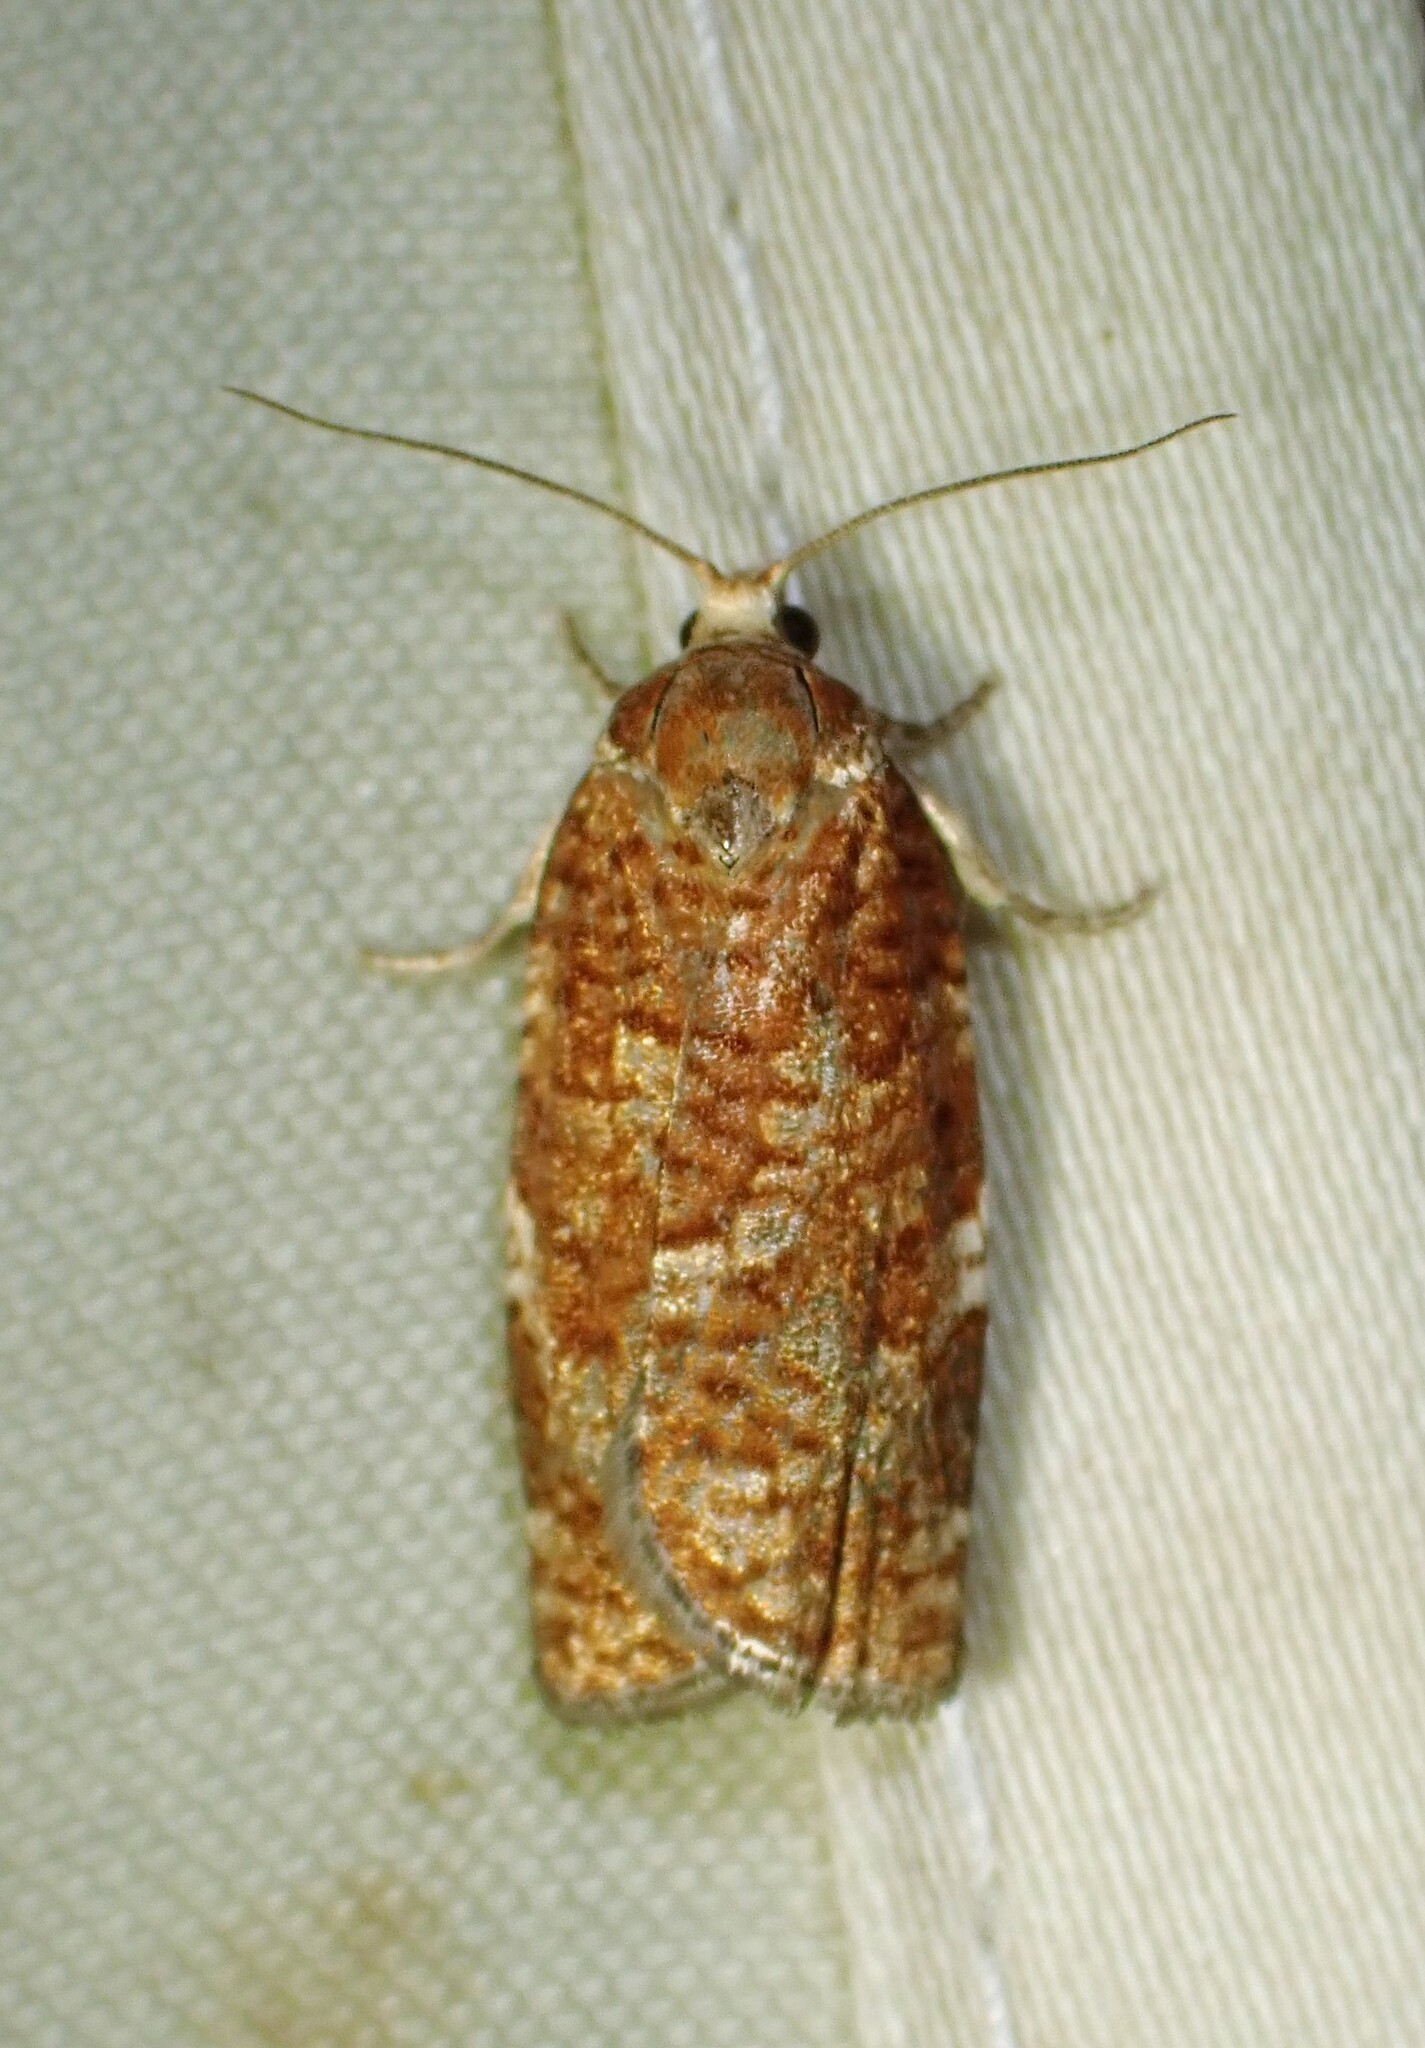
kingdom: Animalia
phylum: Arthropoda
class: Insecta
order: Lepidoptera
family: Tortricidae
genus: Choristoneura
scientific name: Choristoneura pinus
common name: Jack pine budworm
